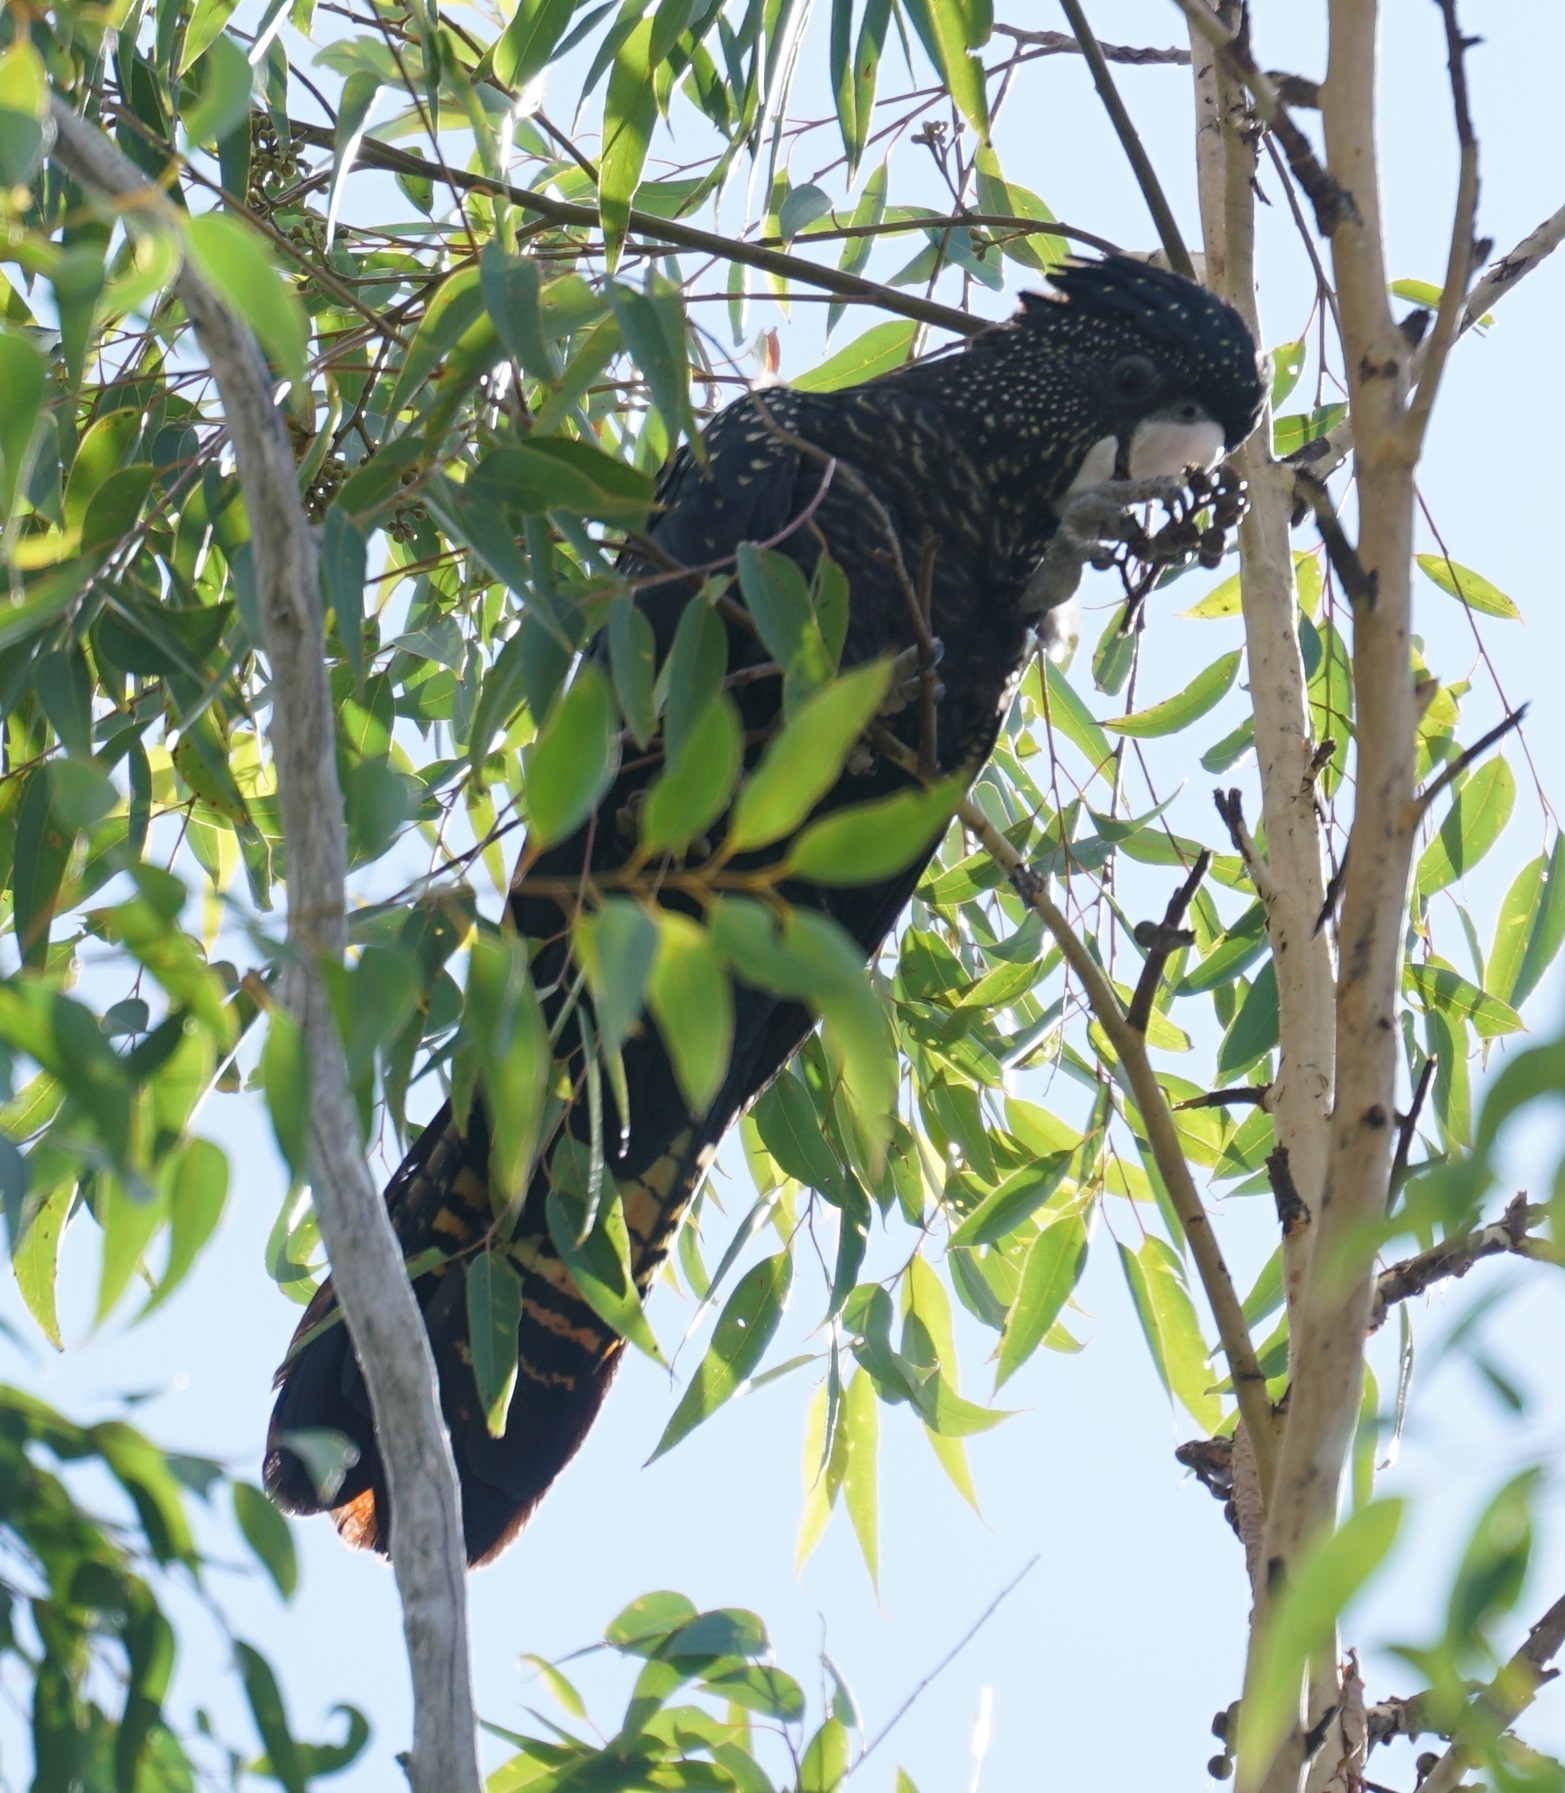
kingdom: Animalia
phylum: Chordata
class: Aves
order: Psittaciformes
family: Psittacidae
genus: Calyptorhynchus
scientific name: Calyptorhynchus banksii
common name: Red-tailed black cockatoo
